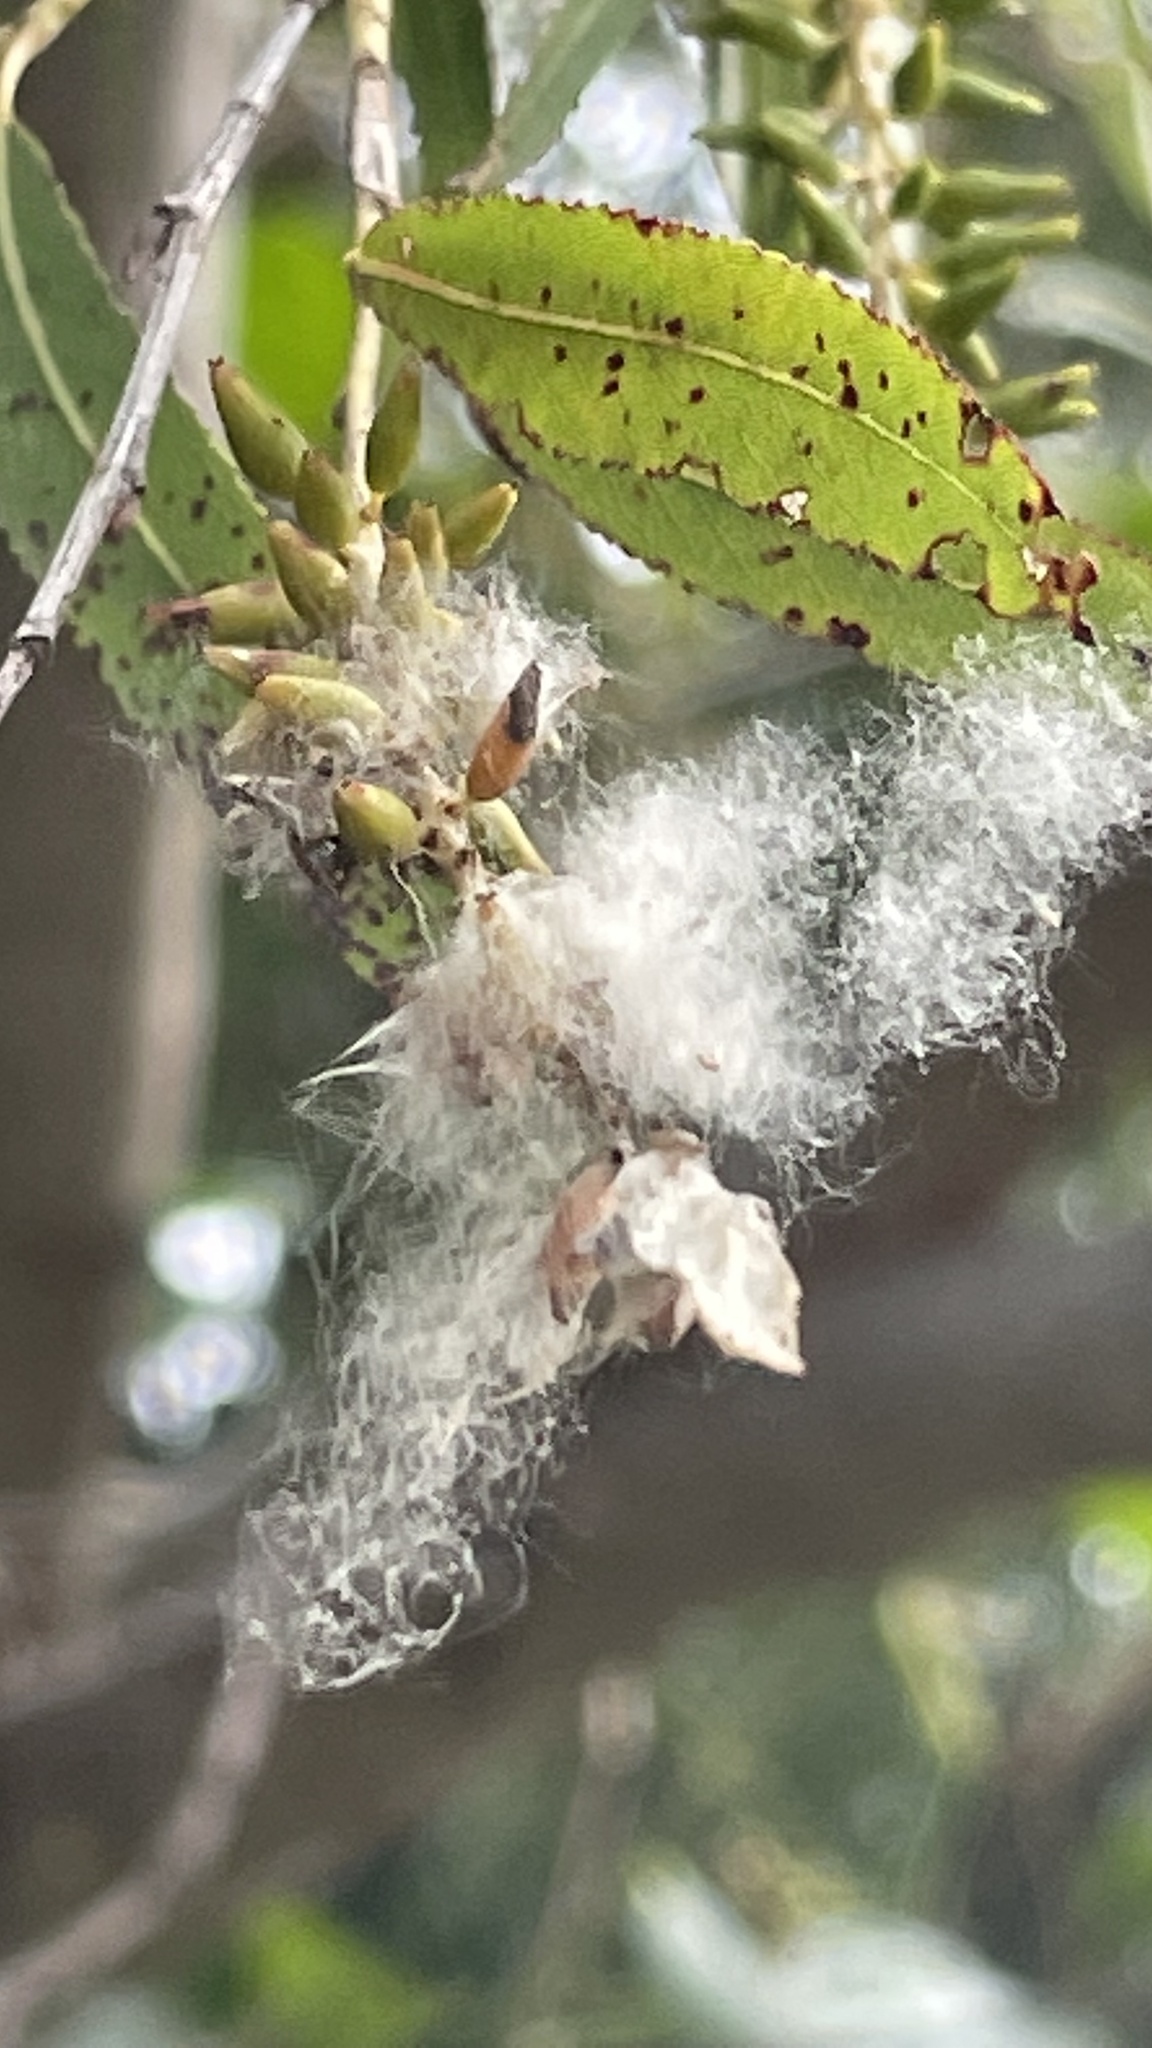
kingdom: Plantae
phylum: Tracheophyta
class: Magnoliopsida
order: Malpighiales
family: Salicaceae
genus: Salix
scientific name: Salix nigra
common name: Black willow
